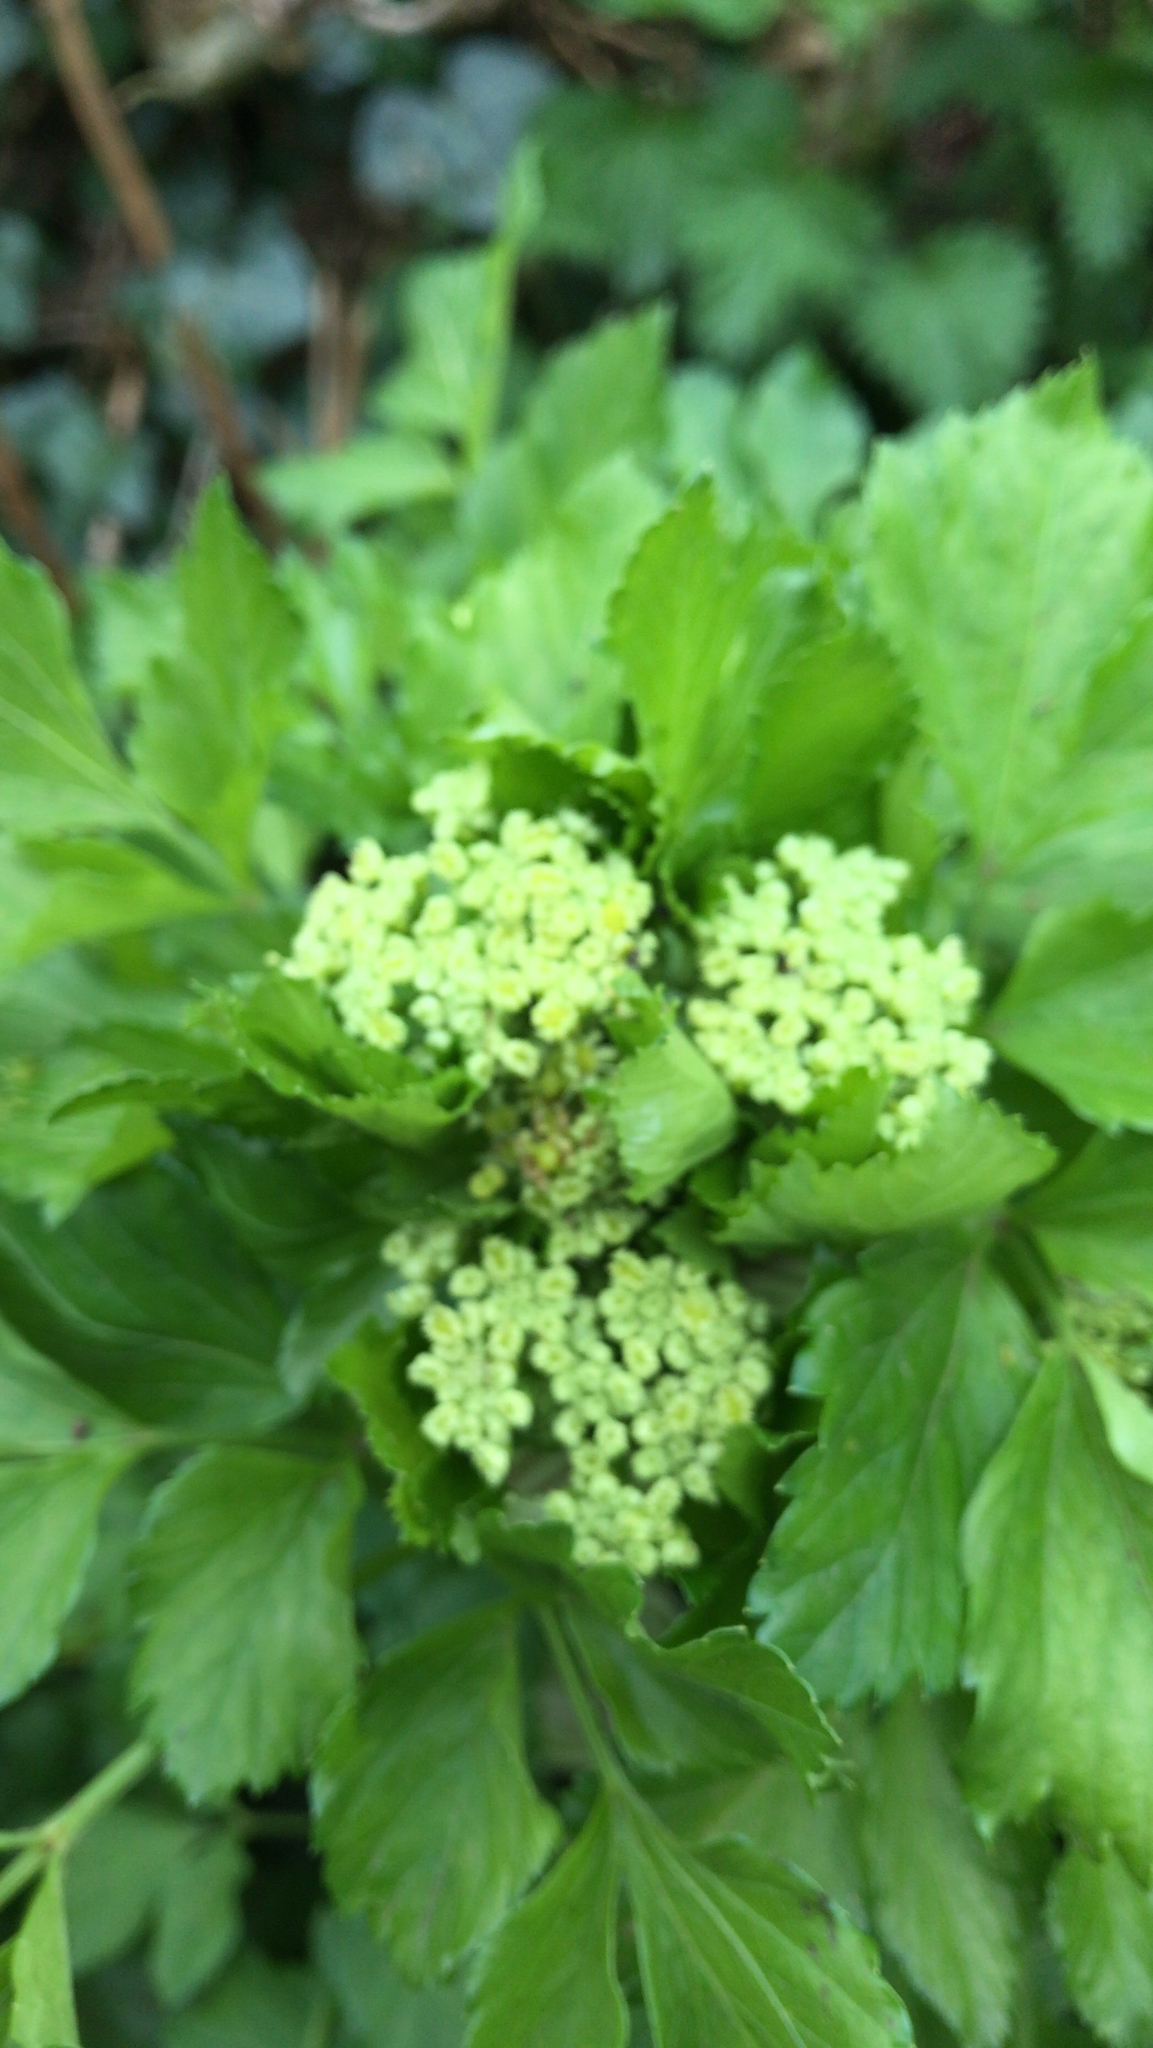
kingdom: Plantae
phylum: Tracheophyta
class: Magnoliopsida
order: Apiales
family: Apiaceae
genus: Smyrnium
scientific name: Smyrnium olusatrum
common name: Alexanders
